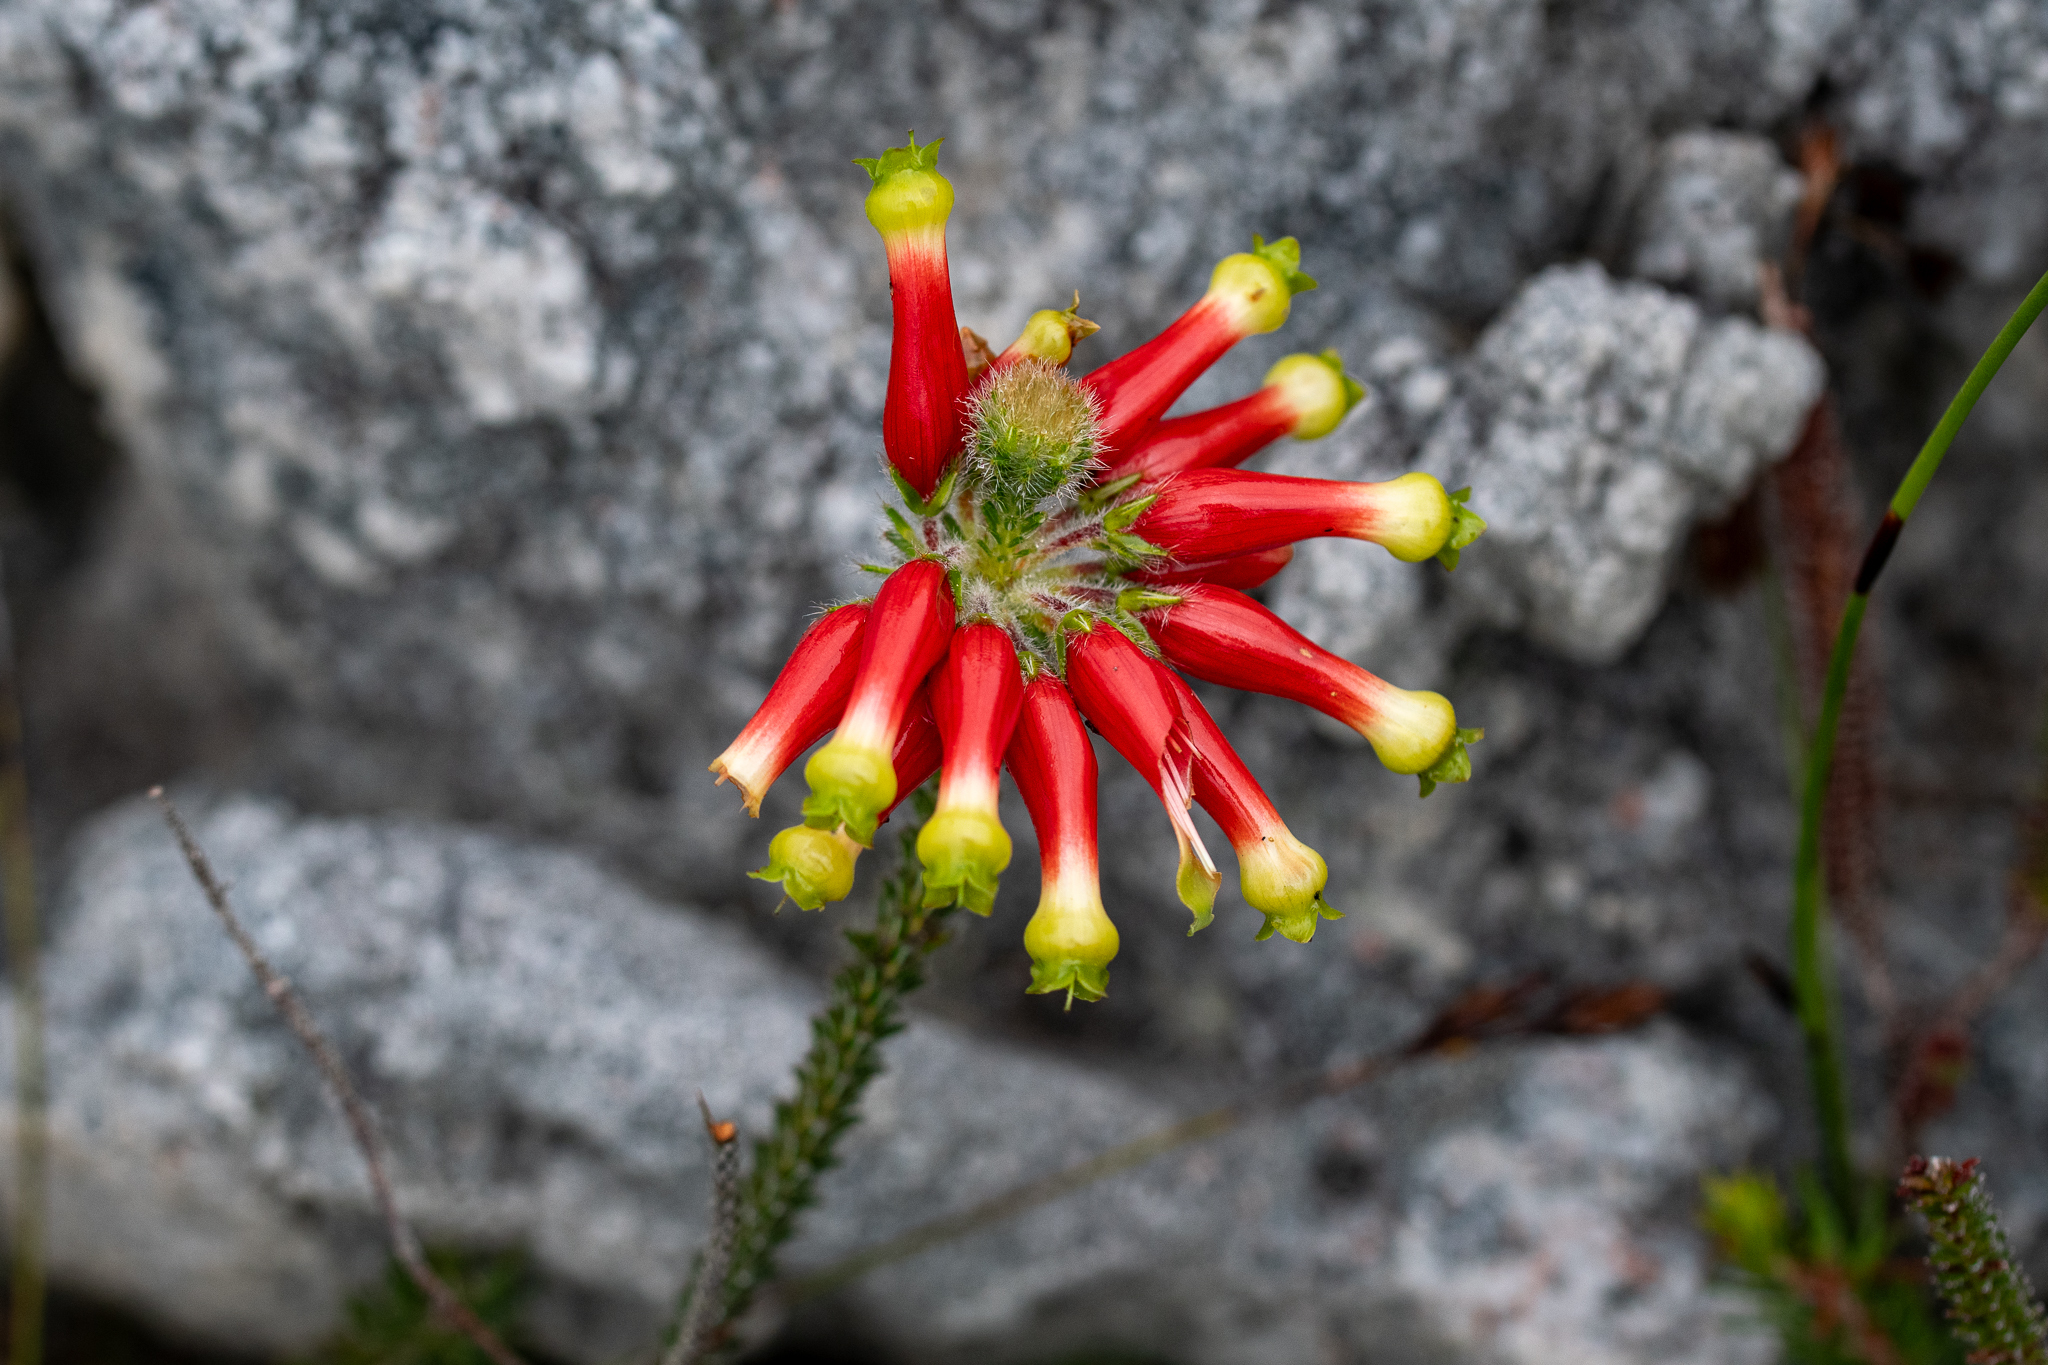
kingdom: Plantae
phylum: Tracheophyta
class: Magnoliopsida
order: Ericales
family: Ericaceae
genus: Erica
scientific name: Erica massonii
